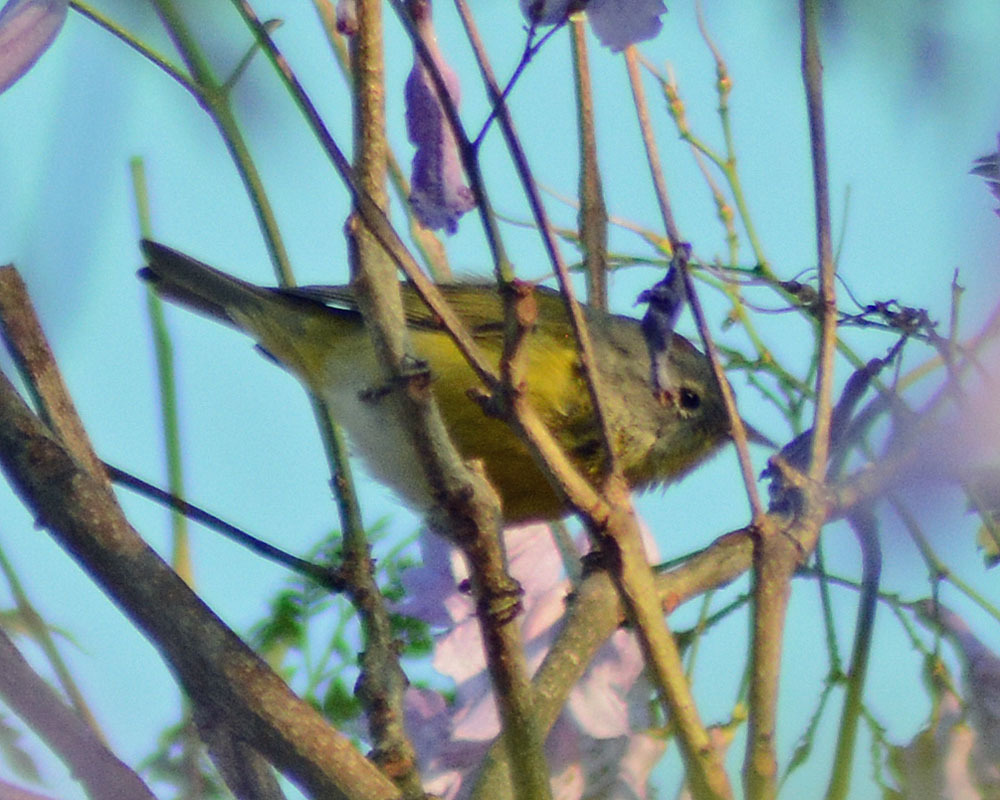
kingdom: Animalia
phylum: Chordata
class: Aves
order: Passeriformes
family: Parulidae
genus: Leiothlypis
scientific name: Leiothlypis ruficapilla
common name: Nashville warbler
